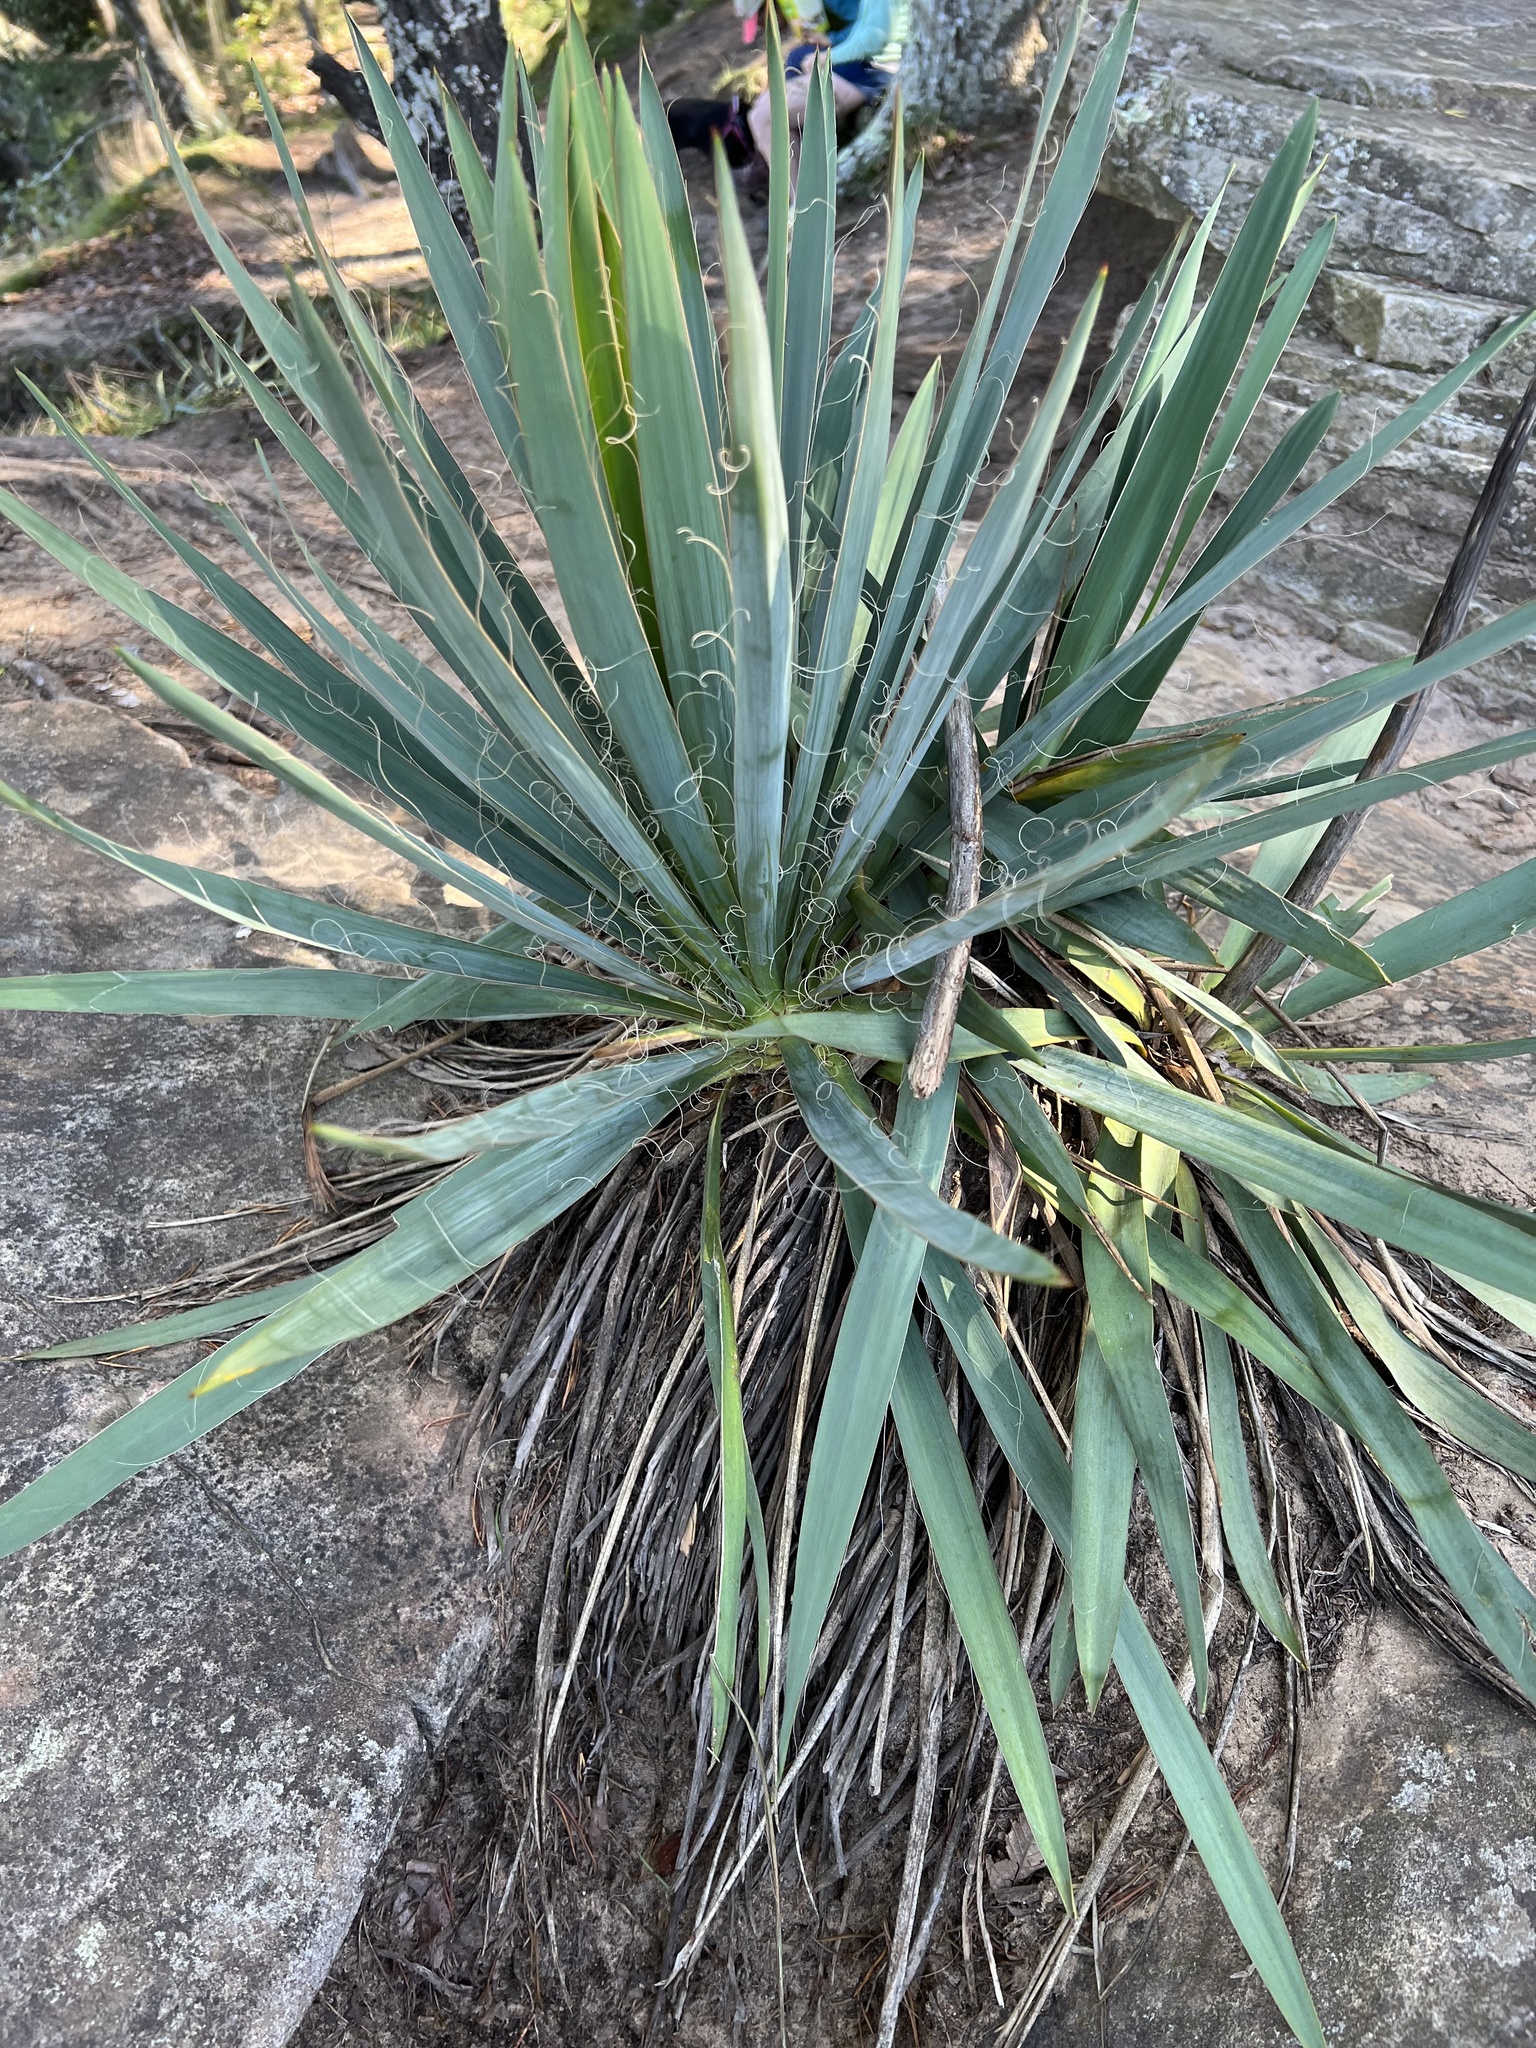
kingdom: Plantae
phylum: Tracheophyta
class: Liliopsida
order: Asparagales
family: Asparagaceae
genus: Yucca
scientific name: Yucca filamentosa
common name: Adam's-needle
